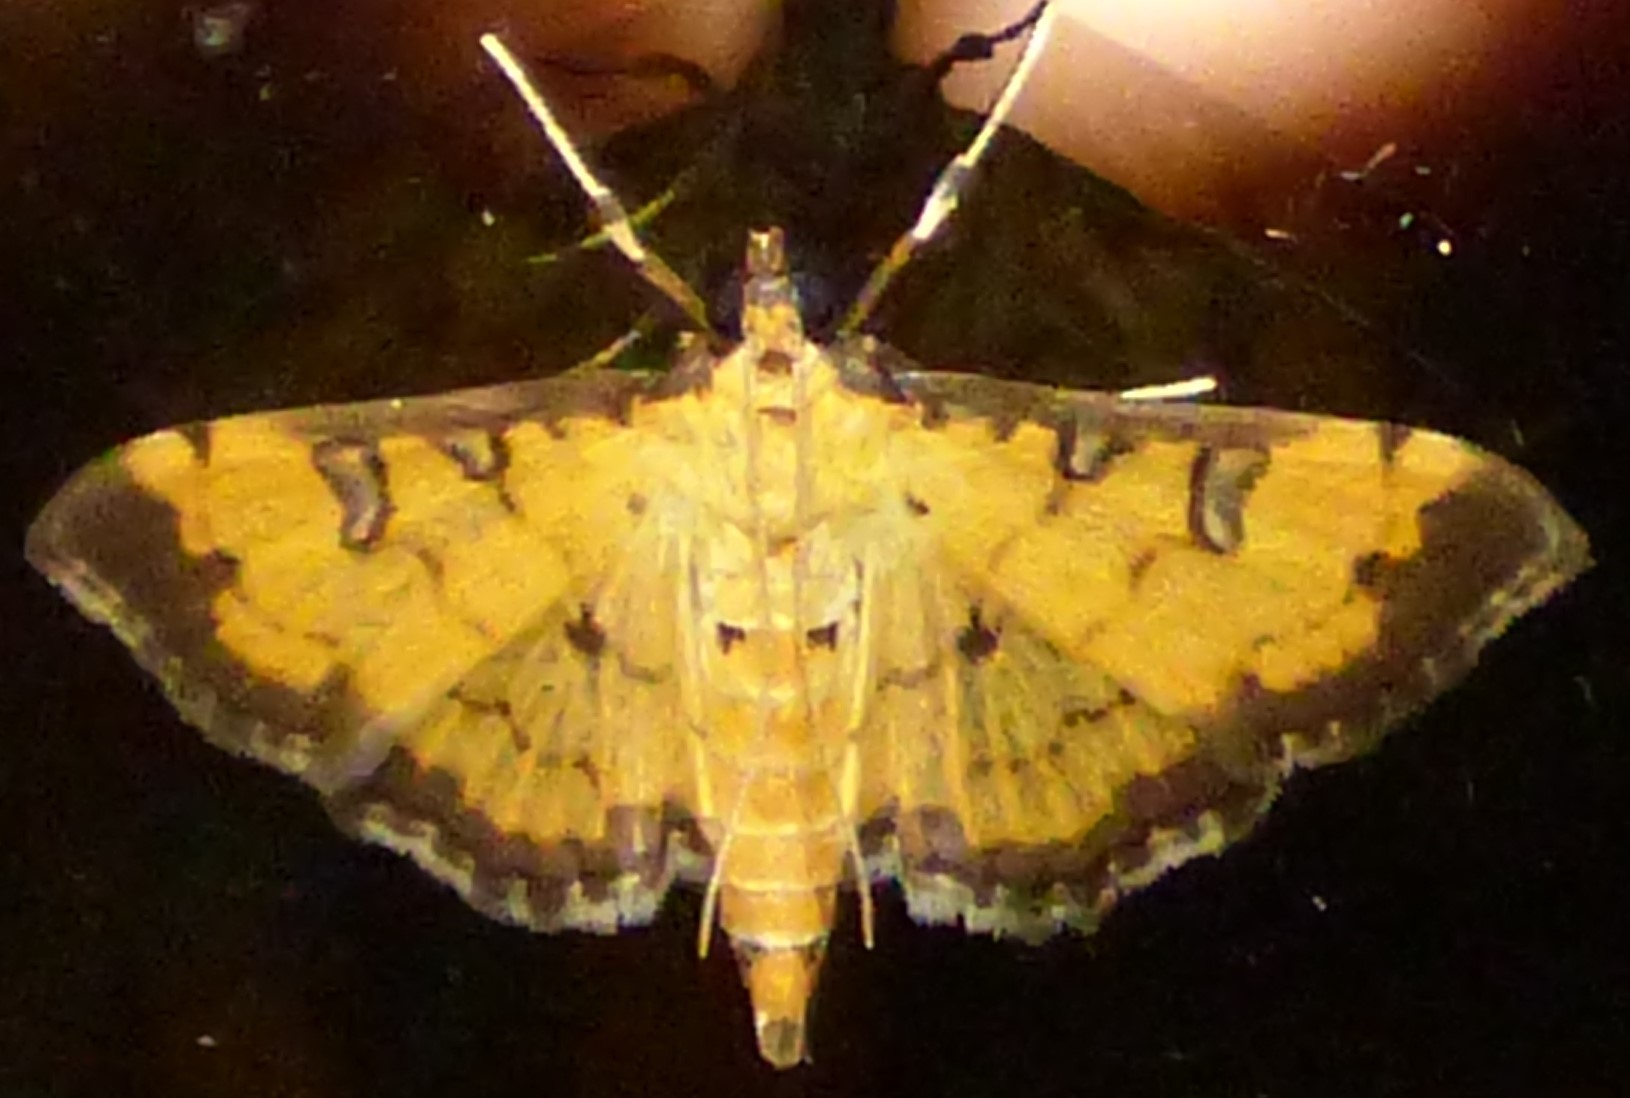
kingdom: Animalia
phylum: Arthropoda
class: Insecta
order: Lepidoptera
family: Crambidae
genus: Ategumia
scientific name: Ategumia ebulealis
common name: Moth
